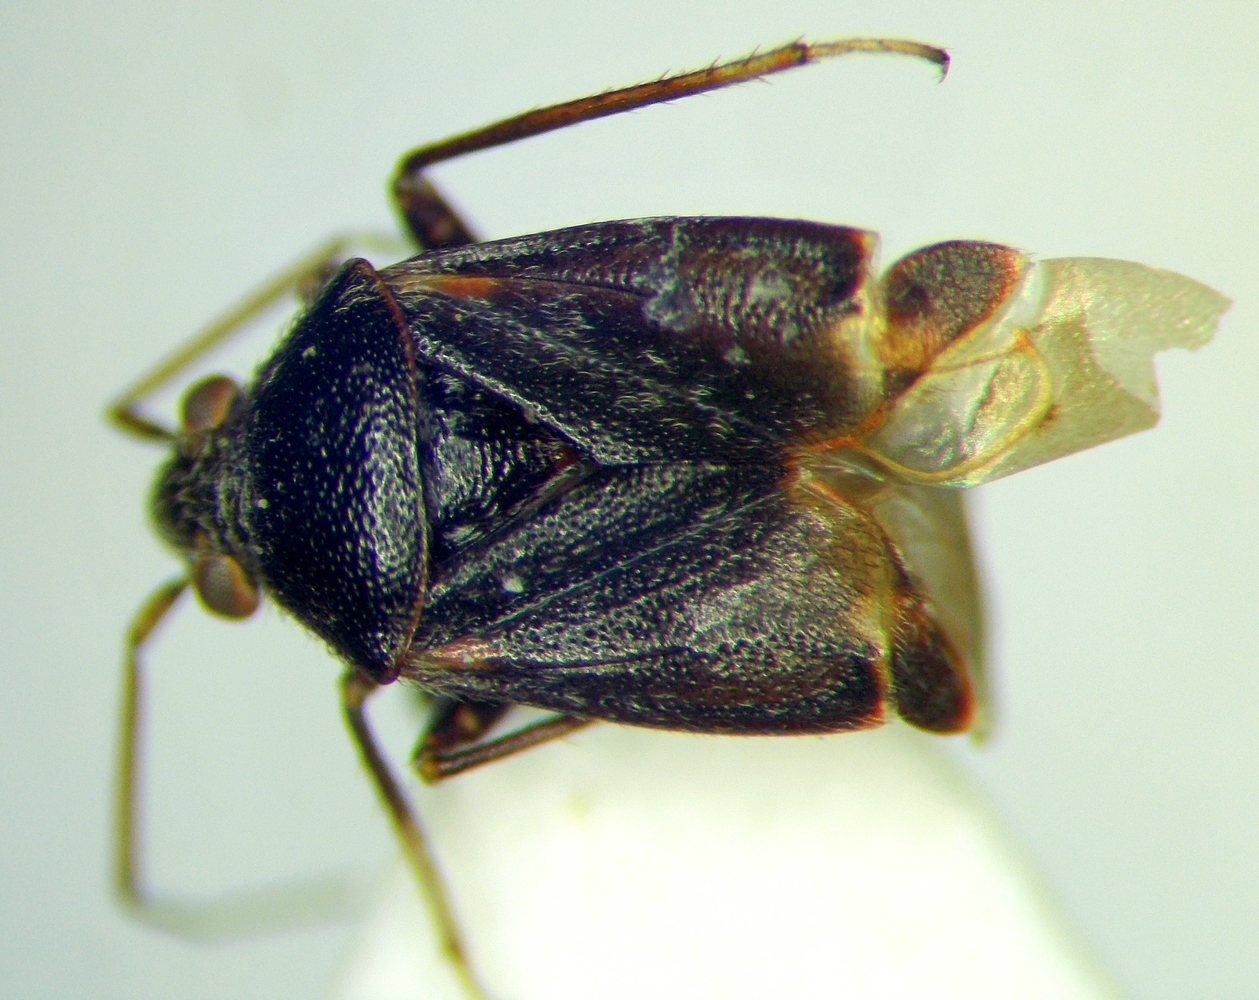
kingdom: Animalia
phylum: Arthropoda
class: Insecta
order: Hemiptera
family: Miridae
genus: Charagochilus
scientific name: Charagochilus gyllenhalii
